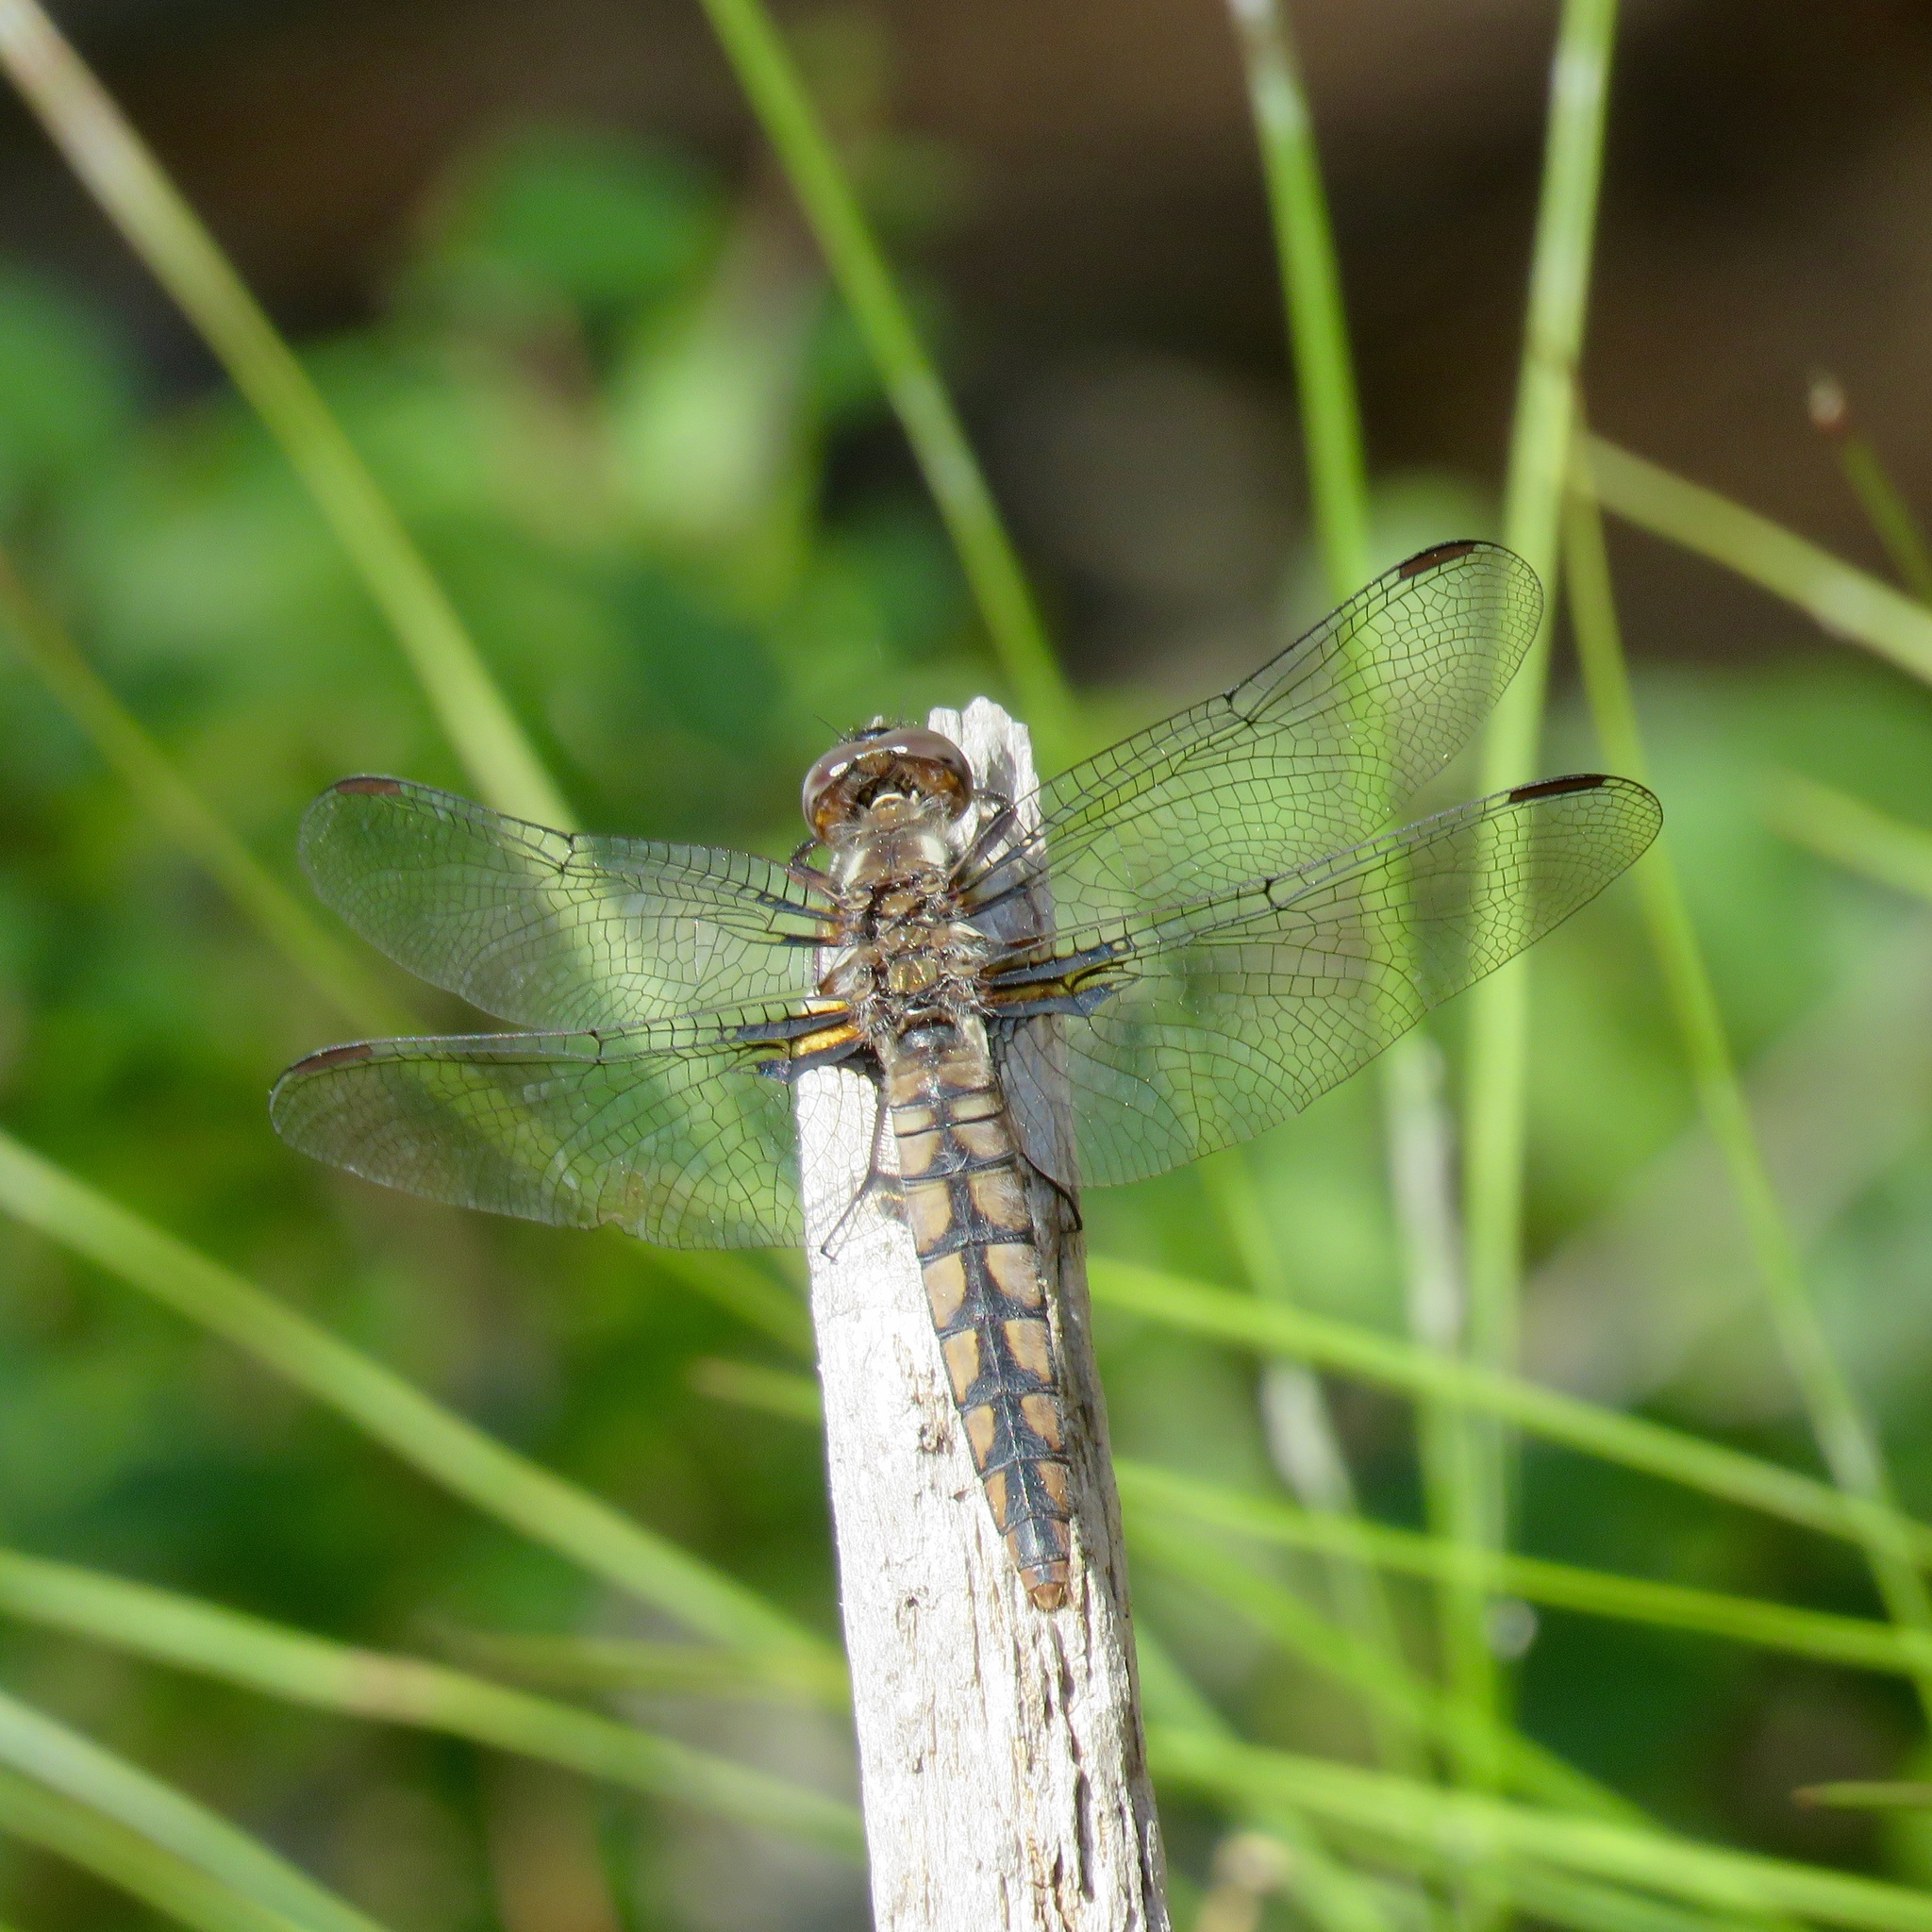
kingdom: Animalia
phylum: Arthropoda
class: Insecta
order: Odonata
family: Libellulidae
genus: Ladona
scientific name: Ladona deplanata
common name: Blue corporal
